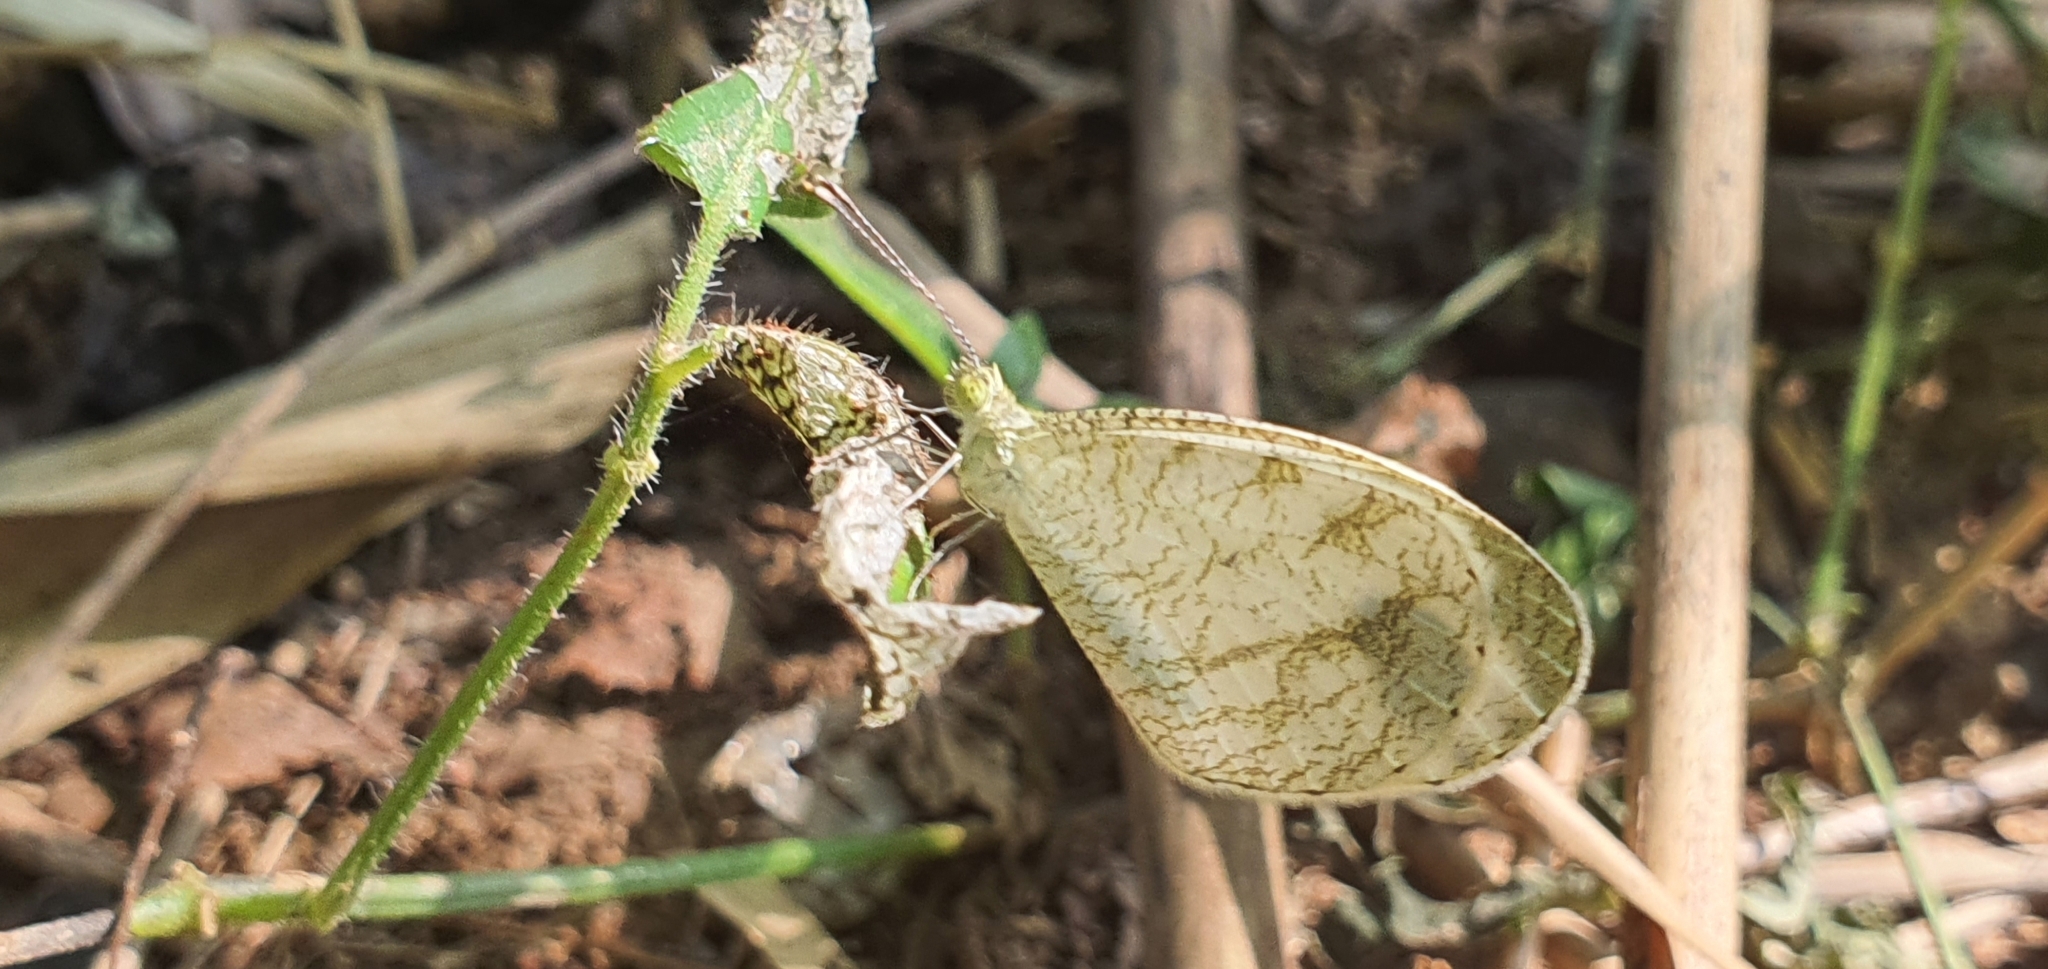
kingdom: Animalia
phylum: Arthropoda
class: Insecta
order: Lepidoptera
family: Pieridae
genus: Leptosia
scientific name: Leptosia nina
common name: Psyche
